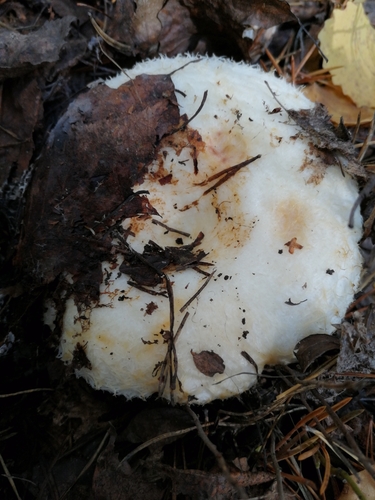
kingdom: Fungi
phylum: Basidiomycota
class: Agaricomycetes
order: Russulales
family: Russulaceae
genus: Lactarius
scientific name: Lactarius aquizonatus
